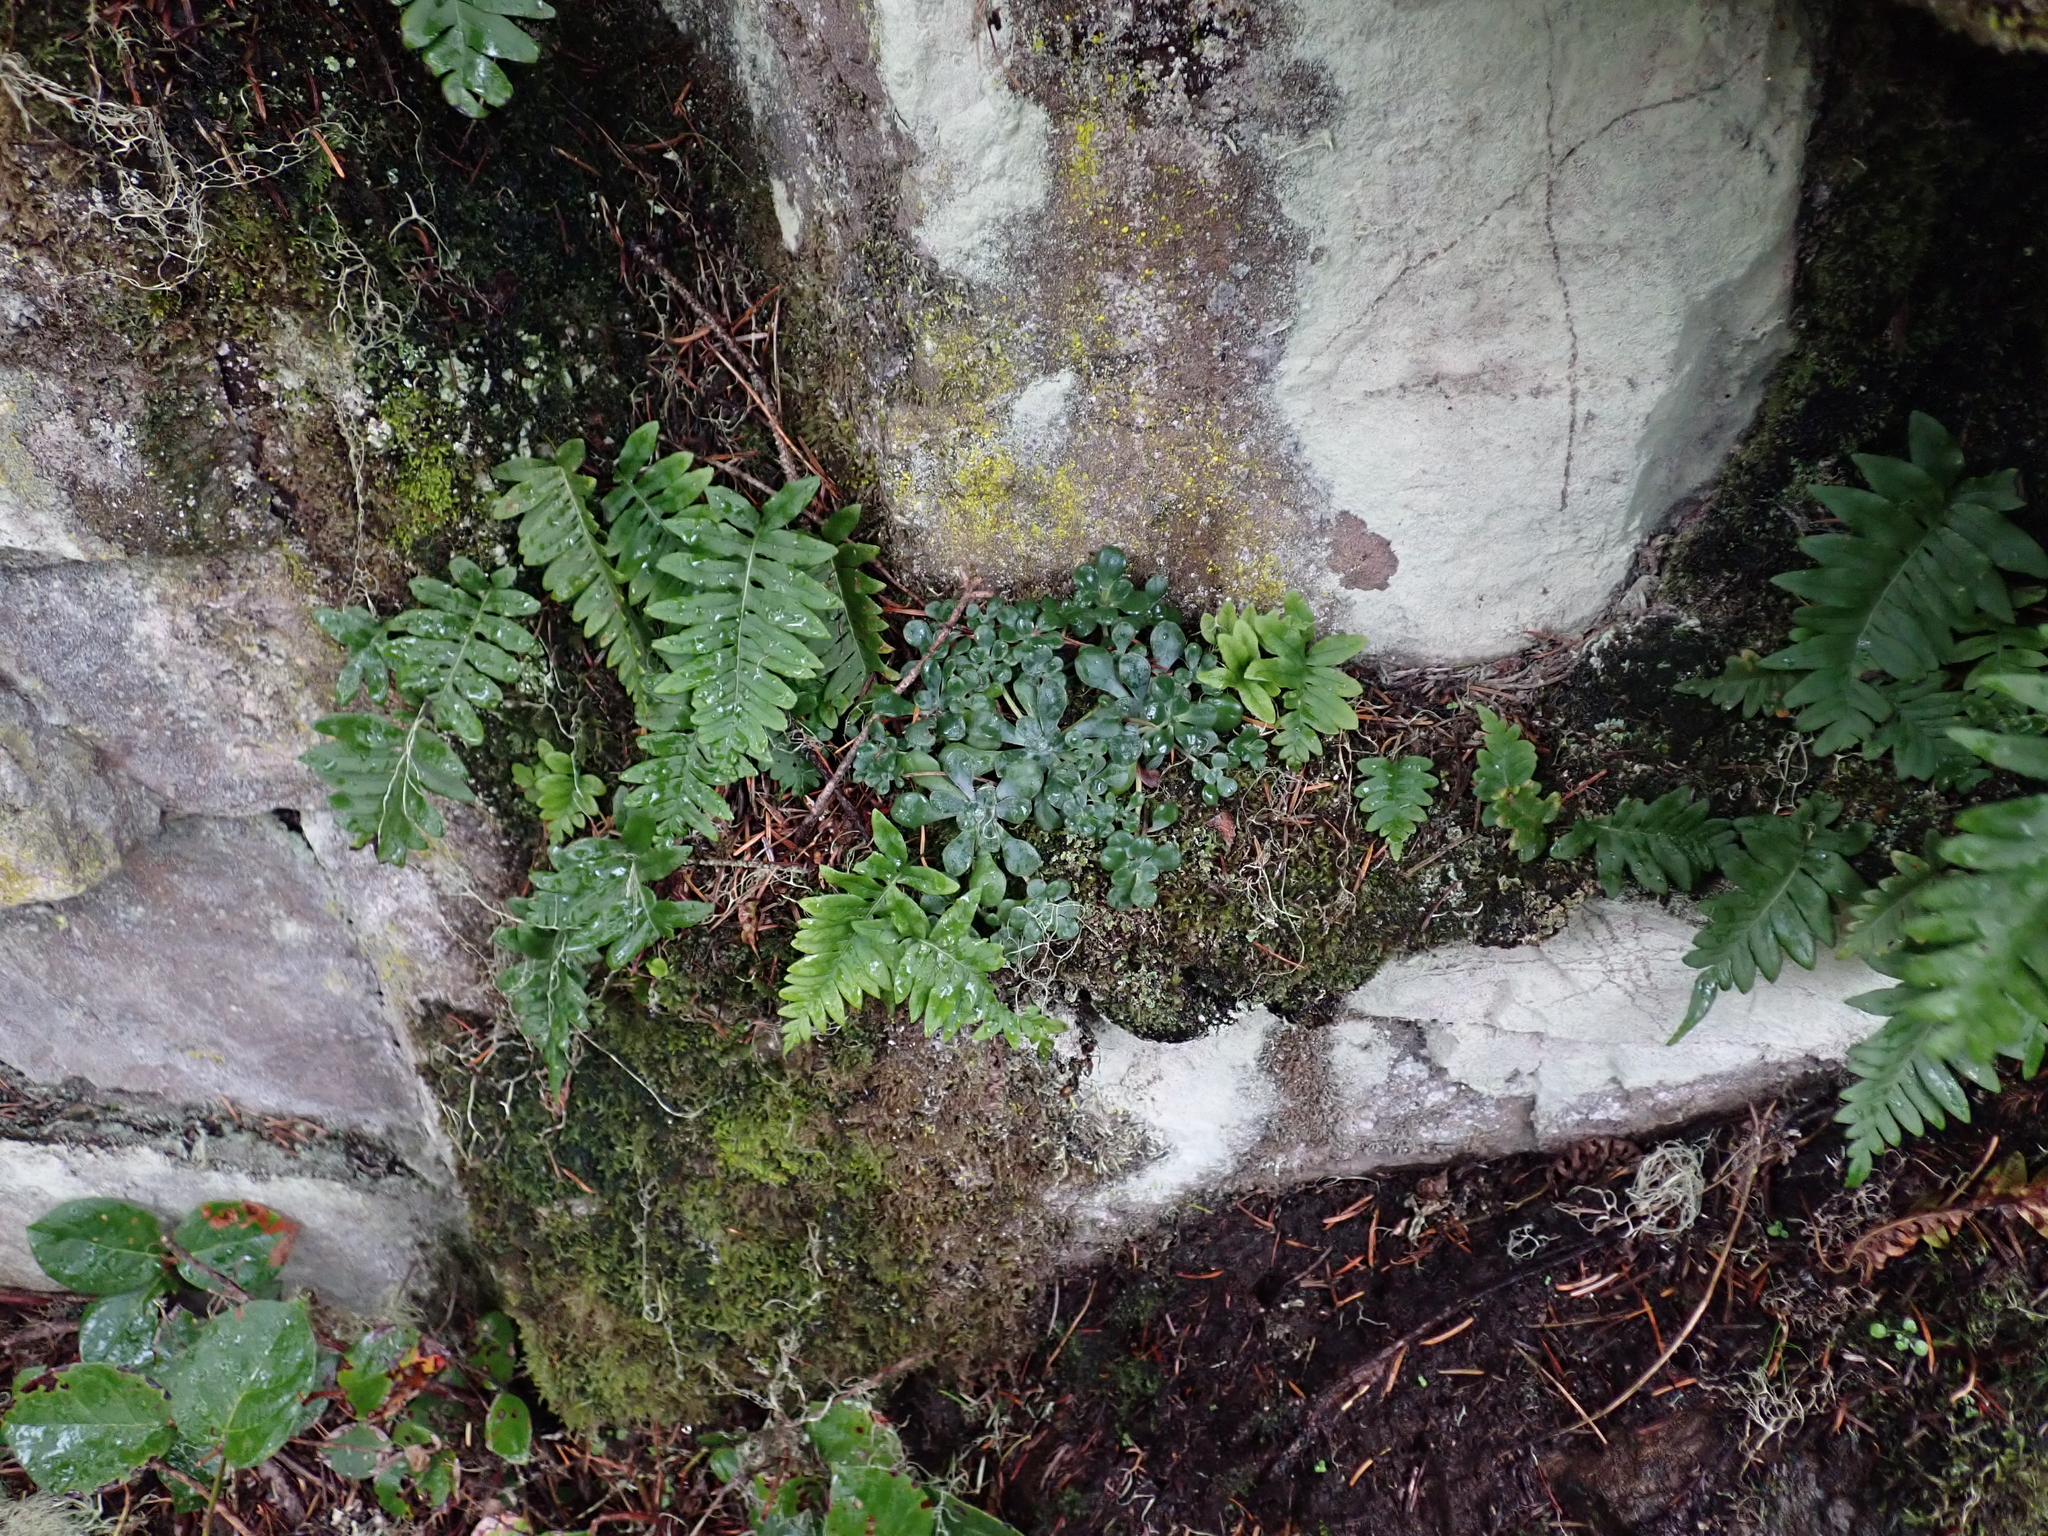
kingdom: Plantae
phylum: Tracheophyta
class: Magnoliopsida
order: Saxifragales
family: Crassulaceae
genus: Sedum
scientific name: Sedum spathulifolium
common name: Colorado stonecrop
